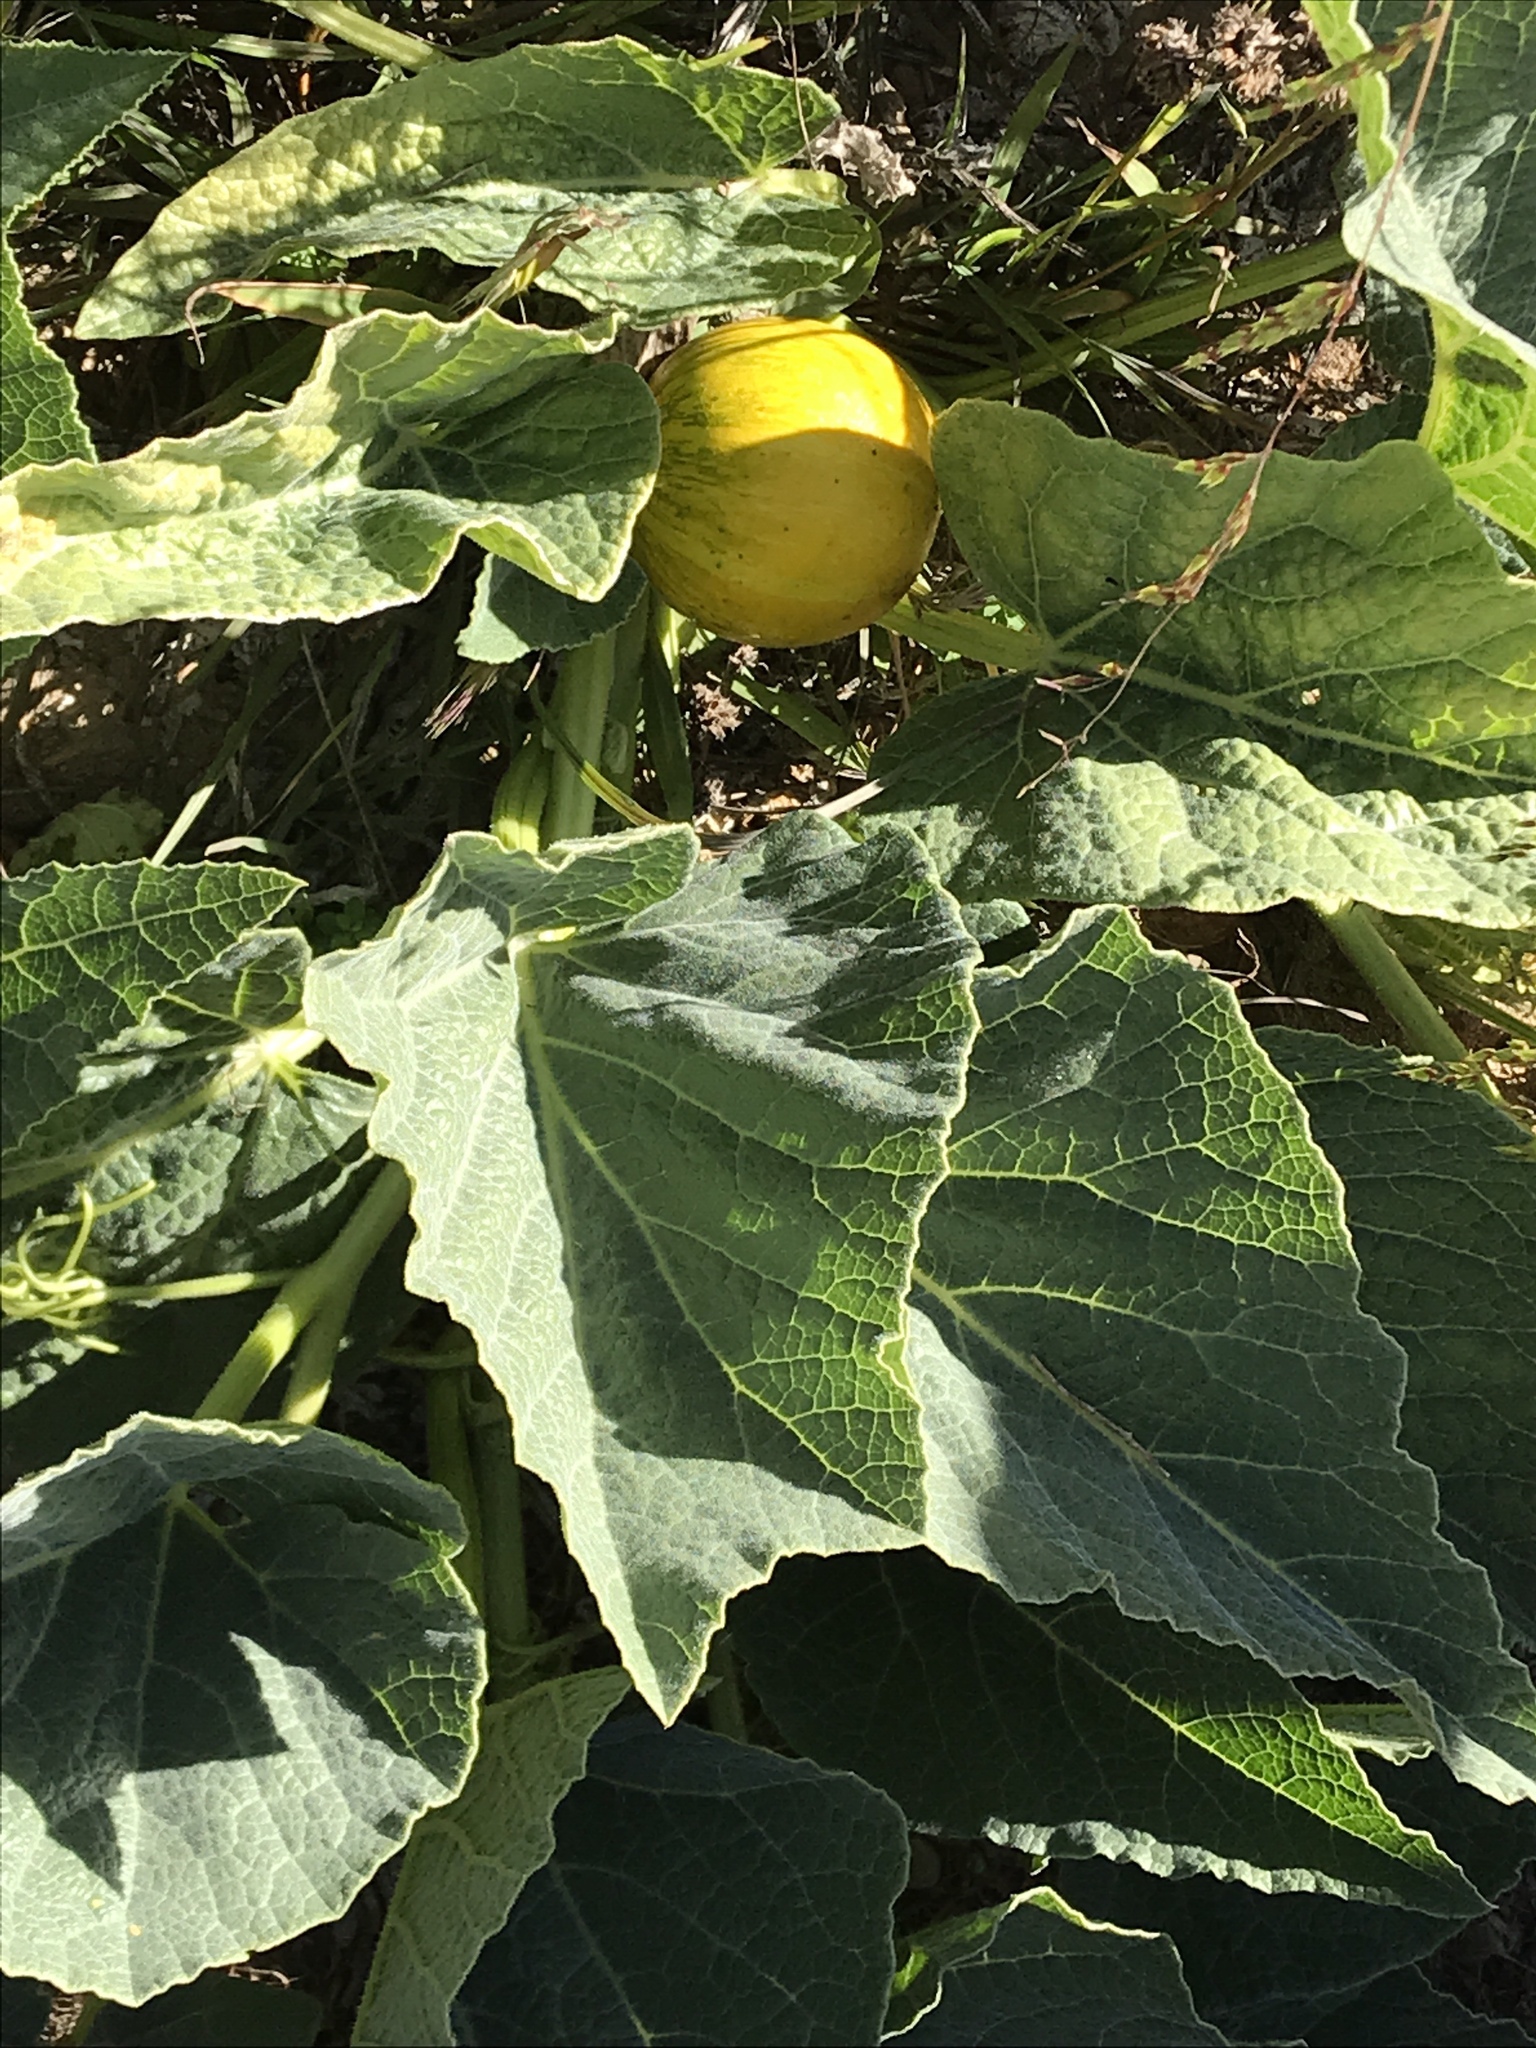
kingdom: Plantae
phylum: Tracheophyta
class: Magnoliopsida
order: Cucurbitales
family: Cucurbitaceae
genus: Cucurbita
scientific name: Cucurbita foetidissima
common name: Buffalo gourd
